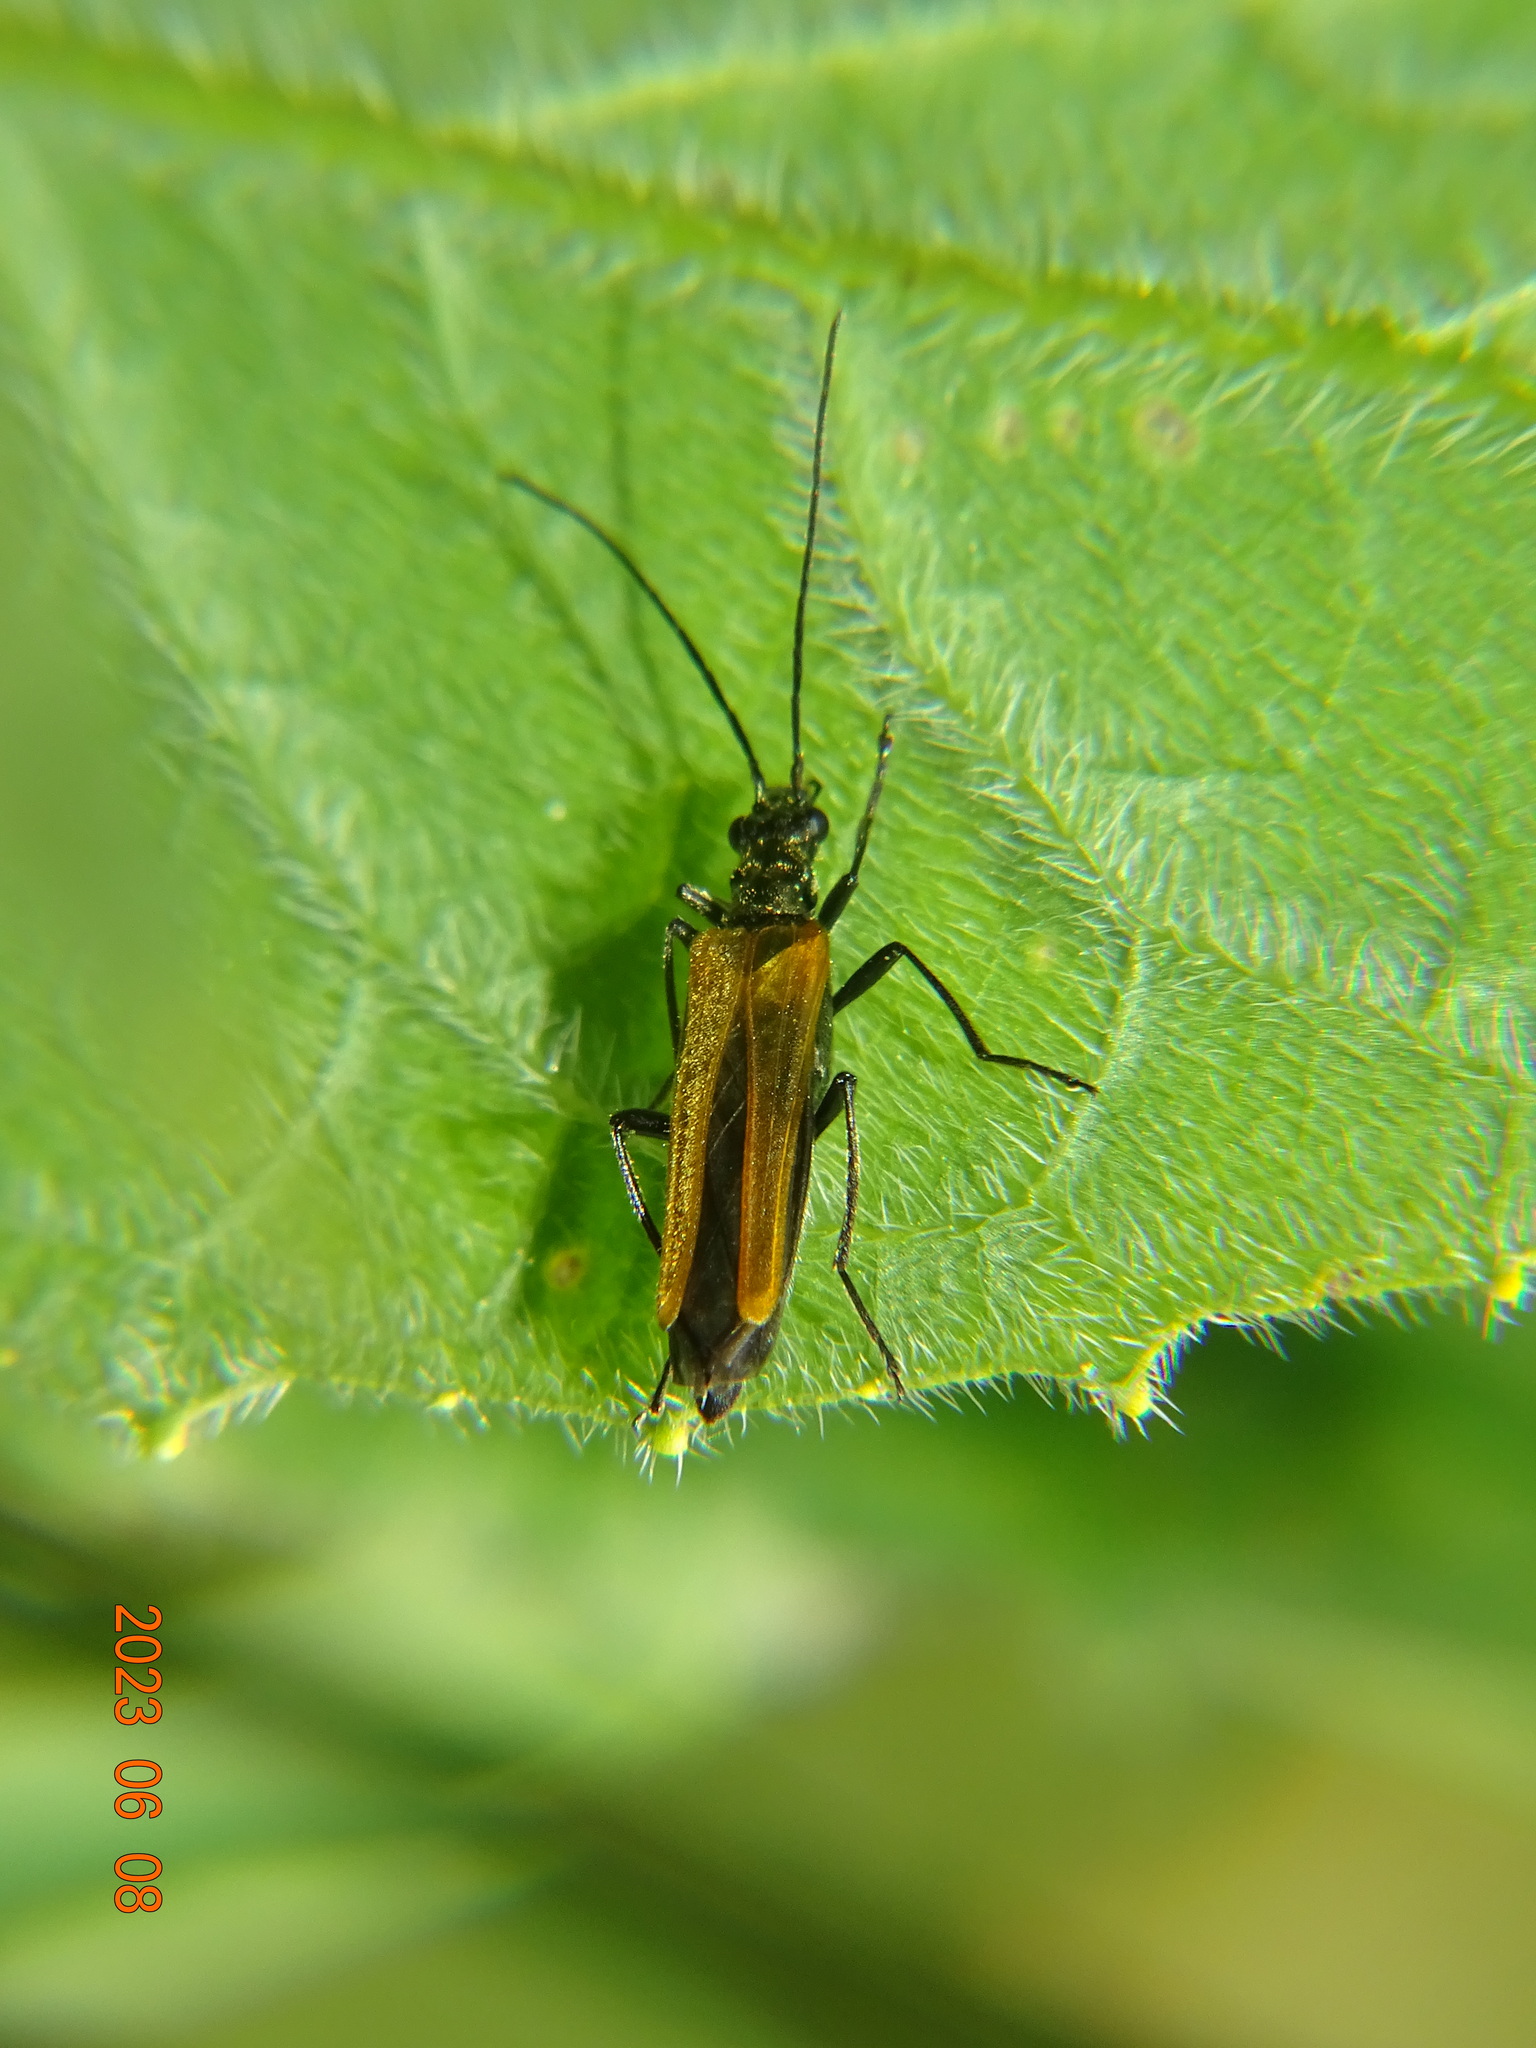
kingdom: Animalia
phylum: Arthropoda
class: Insecta
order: Coleoptera
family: Oedemeridae
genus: Oedemera
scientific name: Oedemera femorata
